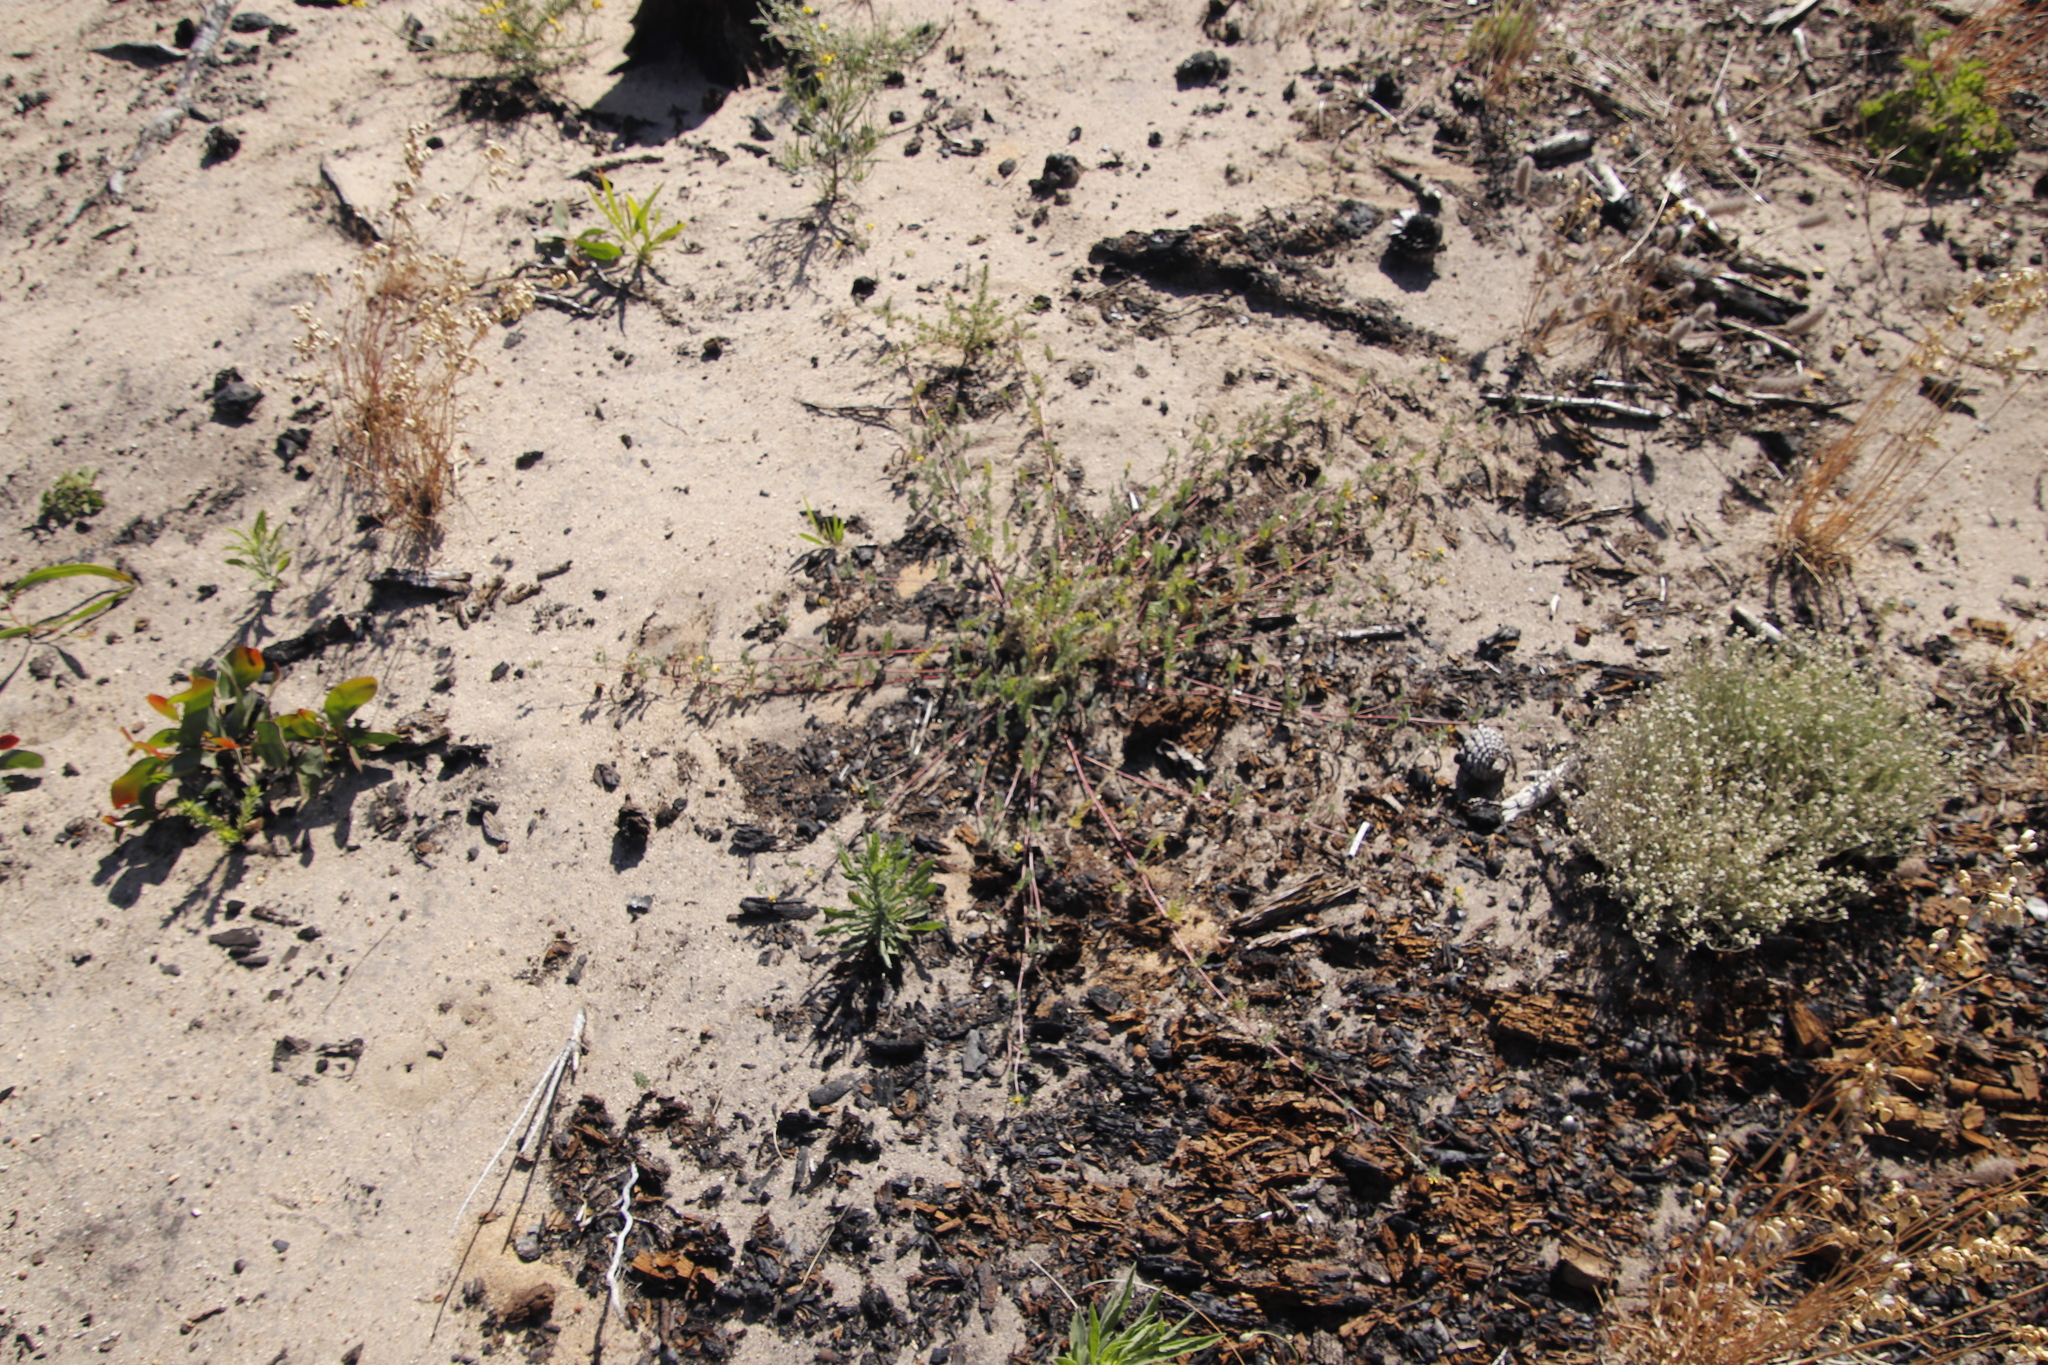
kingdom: Plantae
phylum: Tracheophyta
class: Magnoliopsida
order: Fabales
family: Fabaceae
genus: Ornithopus
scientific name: Ornithopus compressus
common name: Yellow serradella
